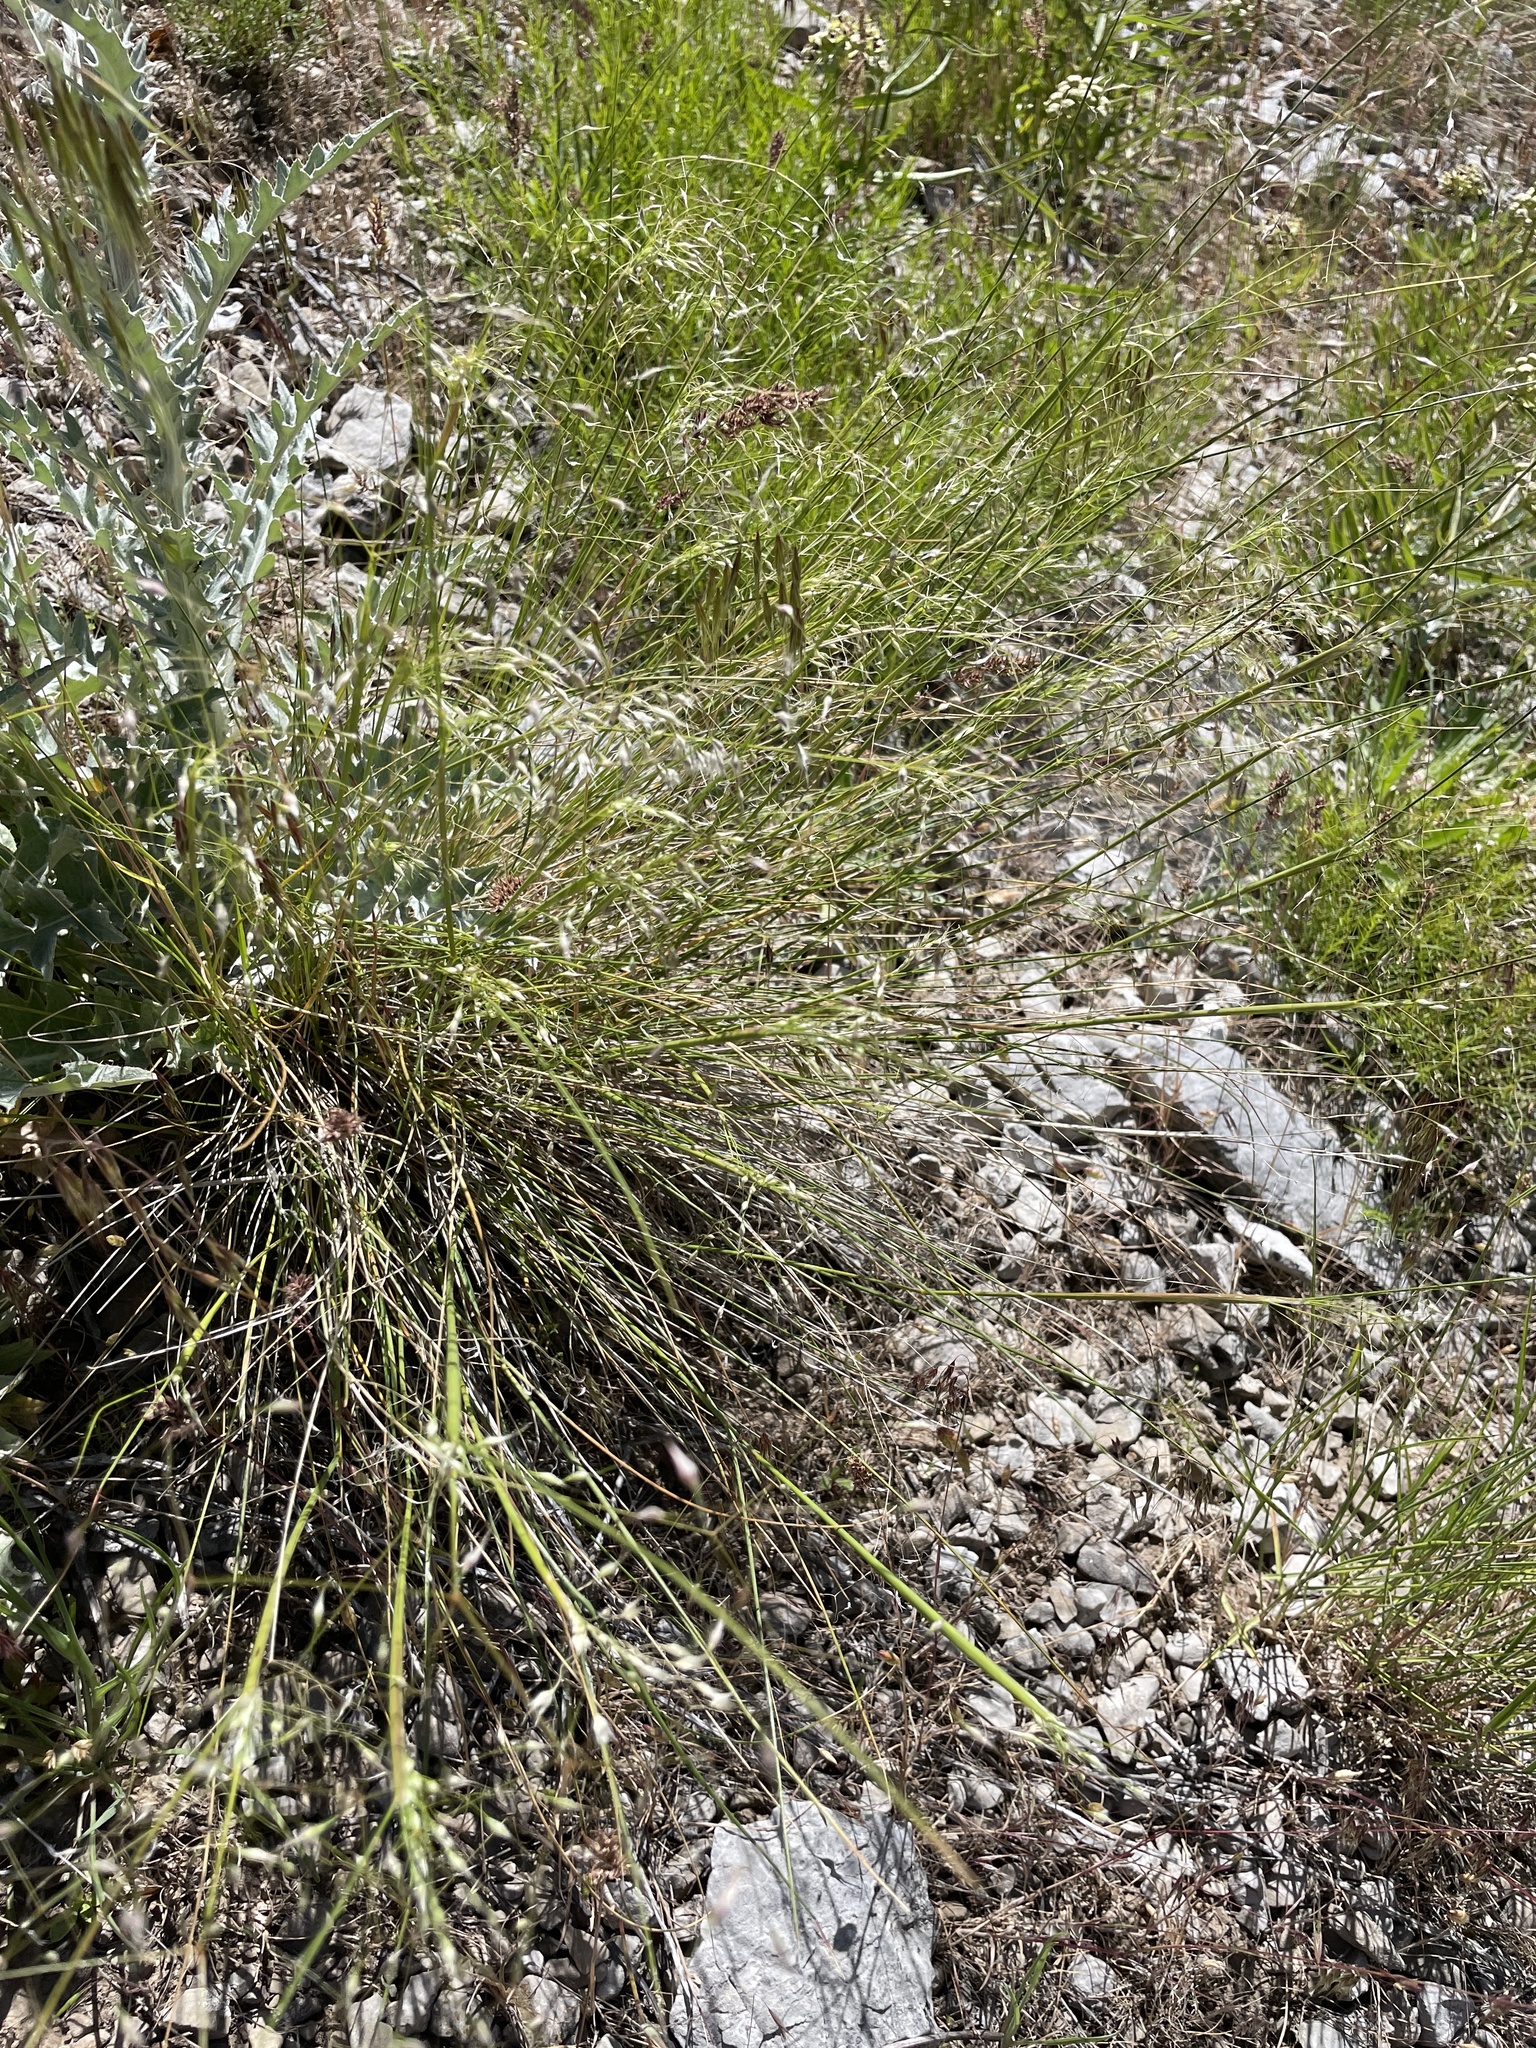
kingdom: Plantae
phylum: Tracheophyta
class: Liliopsida
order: Poales
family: Poaceae
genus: Eriocoma
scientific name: Eriocoma hymenoides
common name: Indian mountain ricegrass
